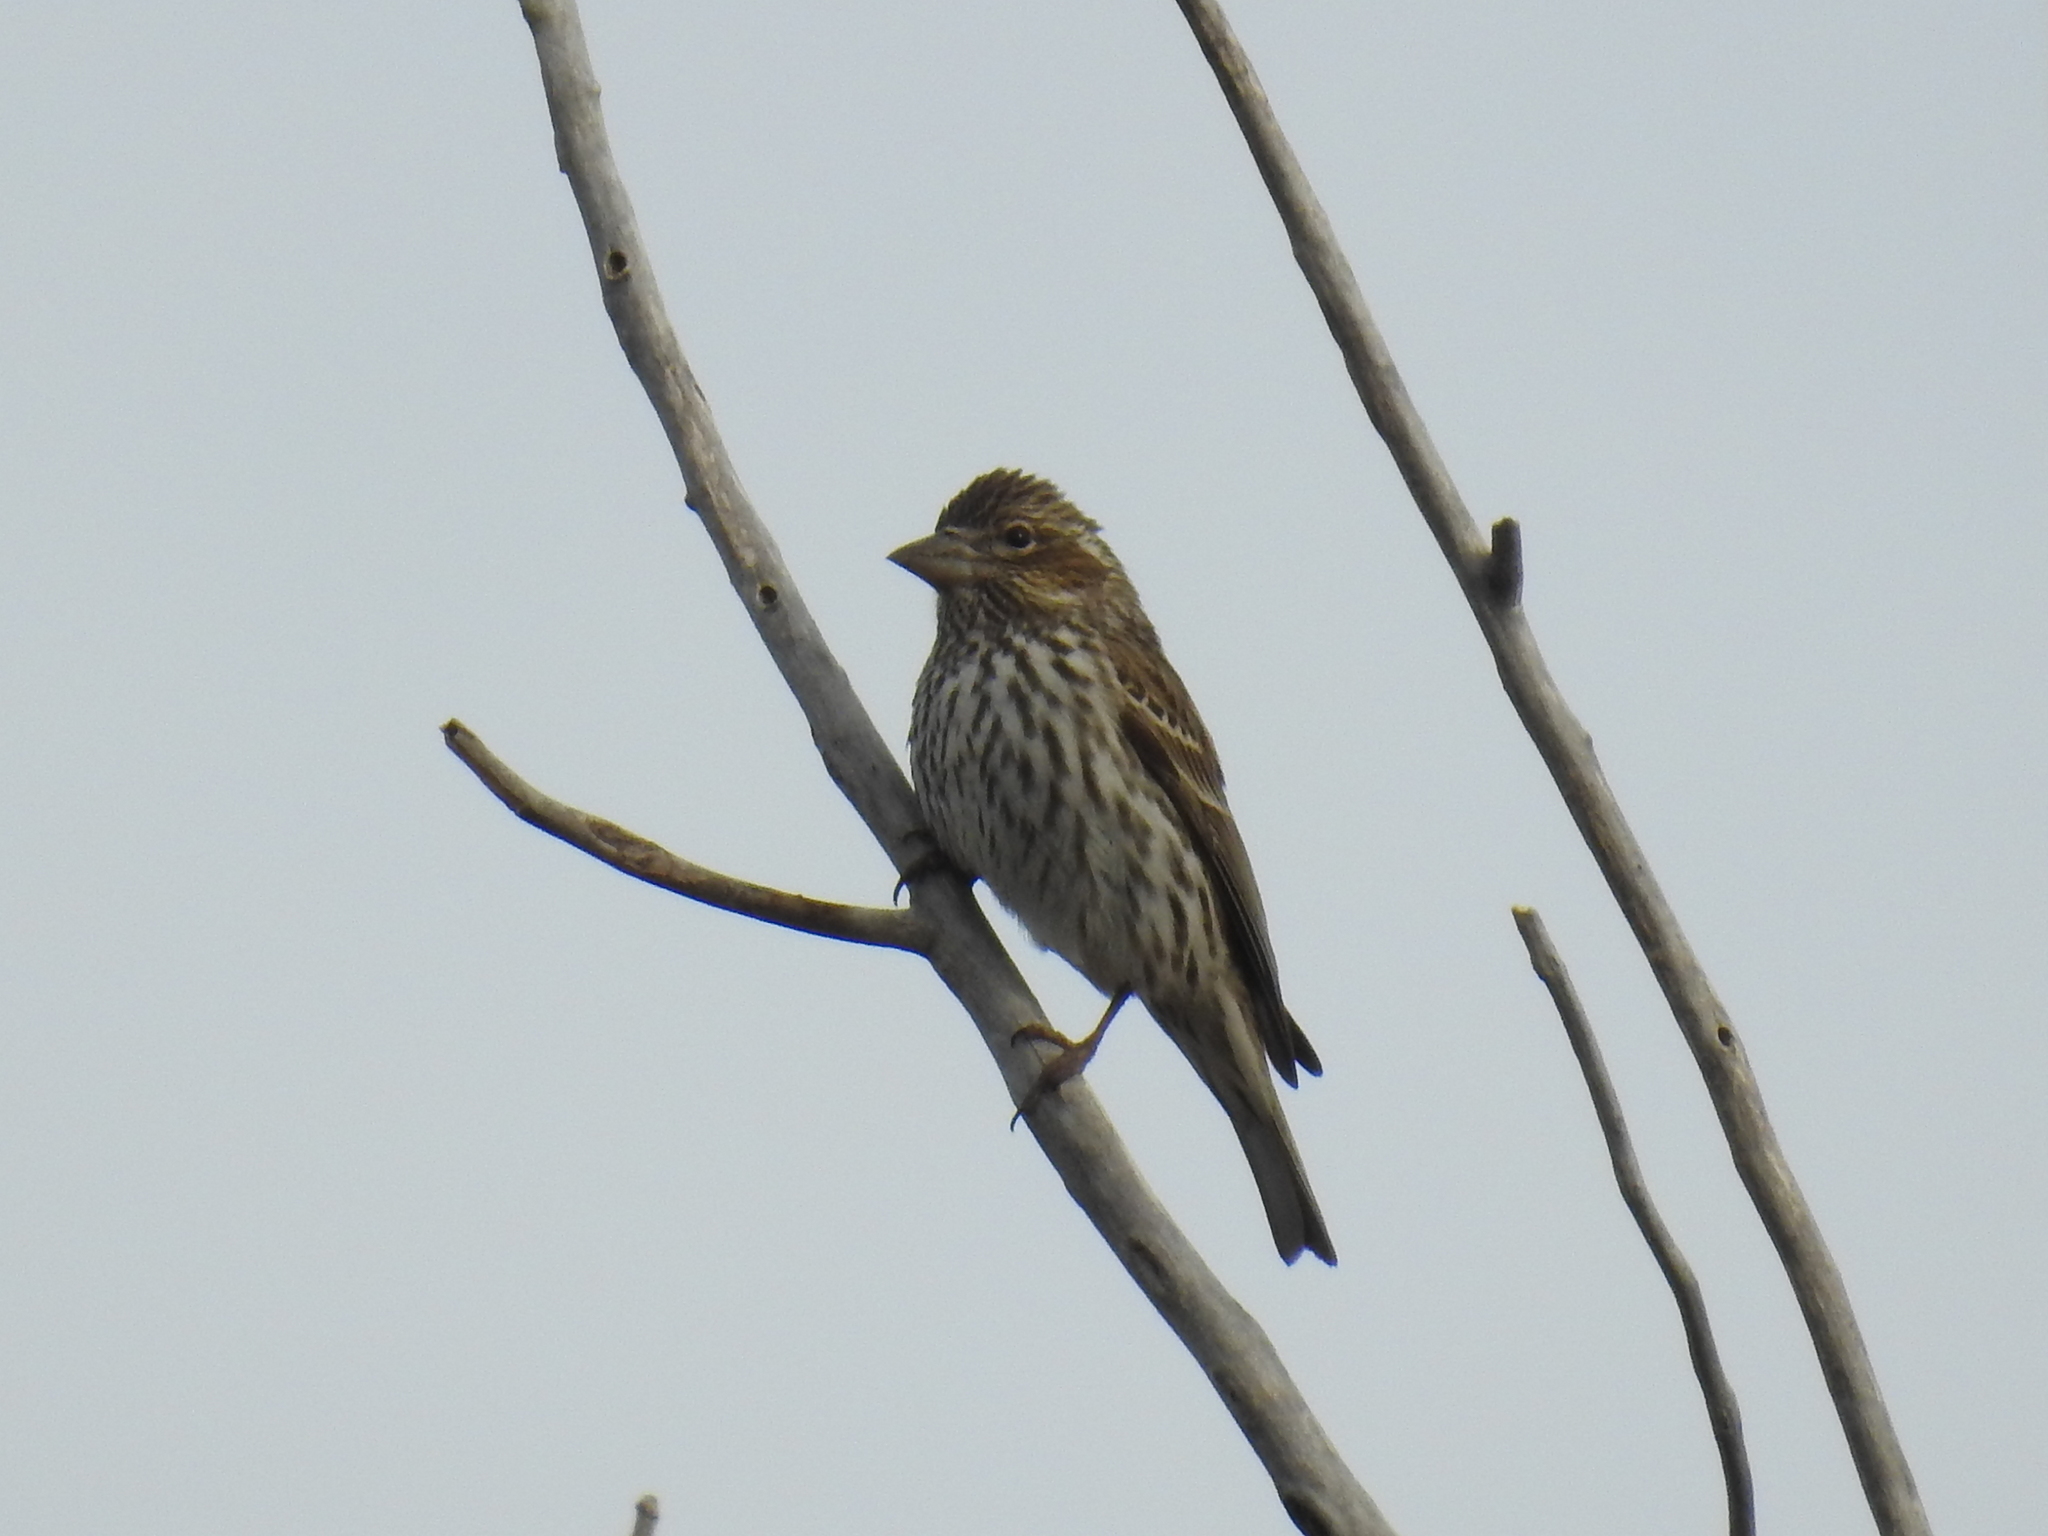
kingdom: Animalia
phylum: Chordata
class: Aves
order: Passeriformes
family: Fringillidae
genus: Haemorhous
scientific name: Haemorhous cassinii
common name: Cassin's finch
